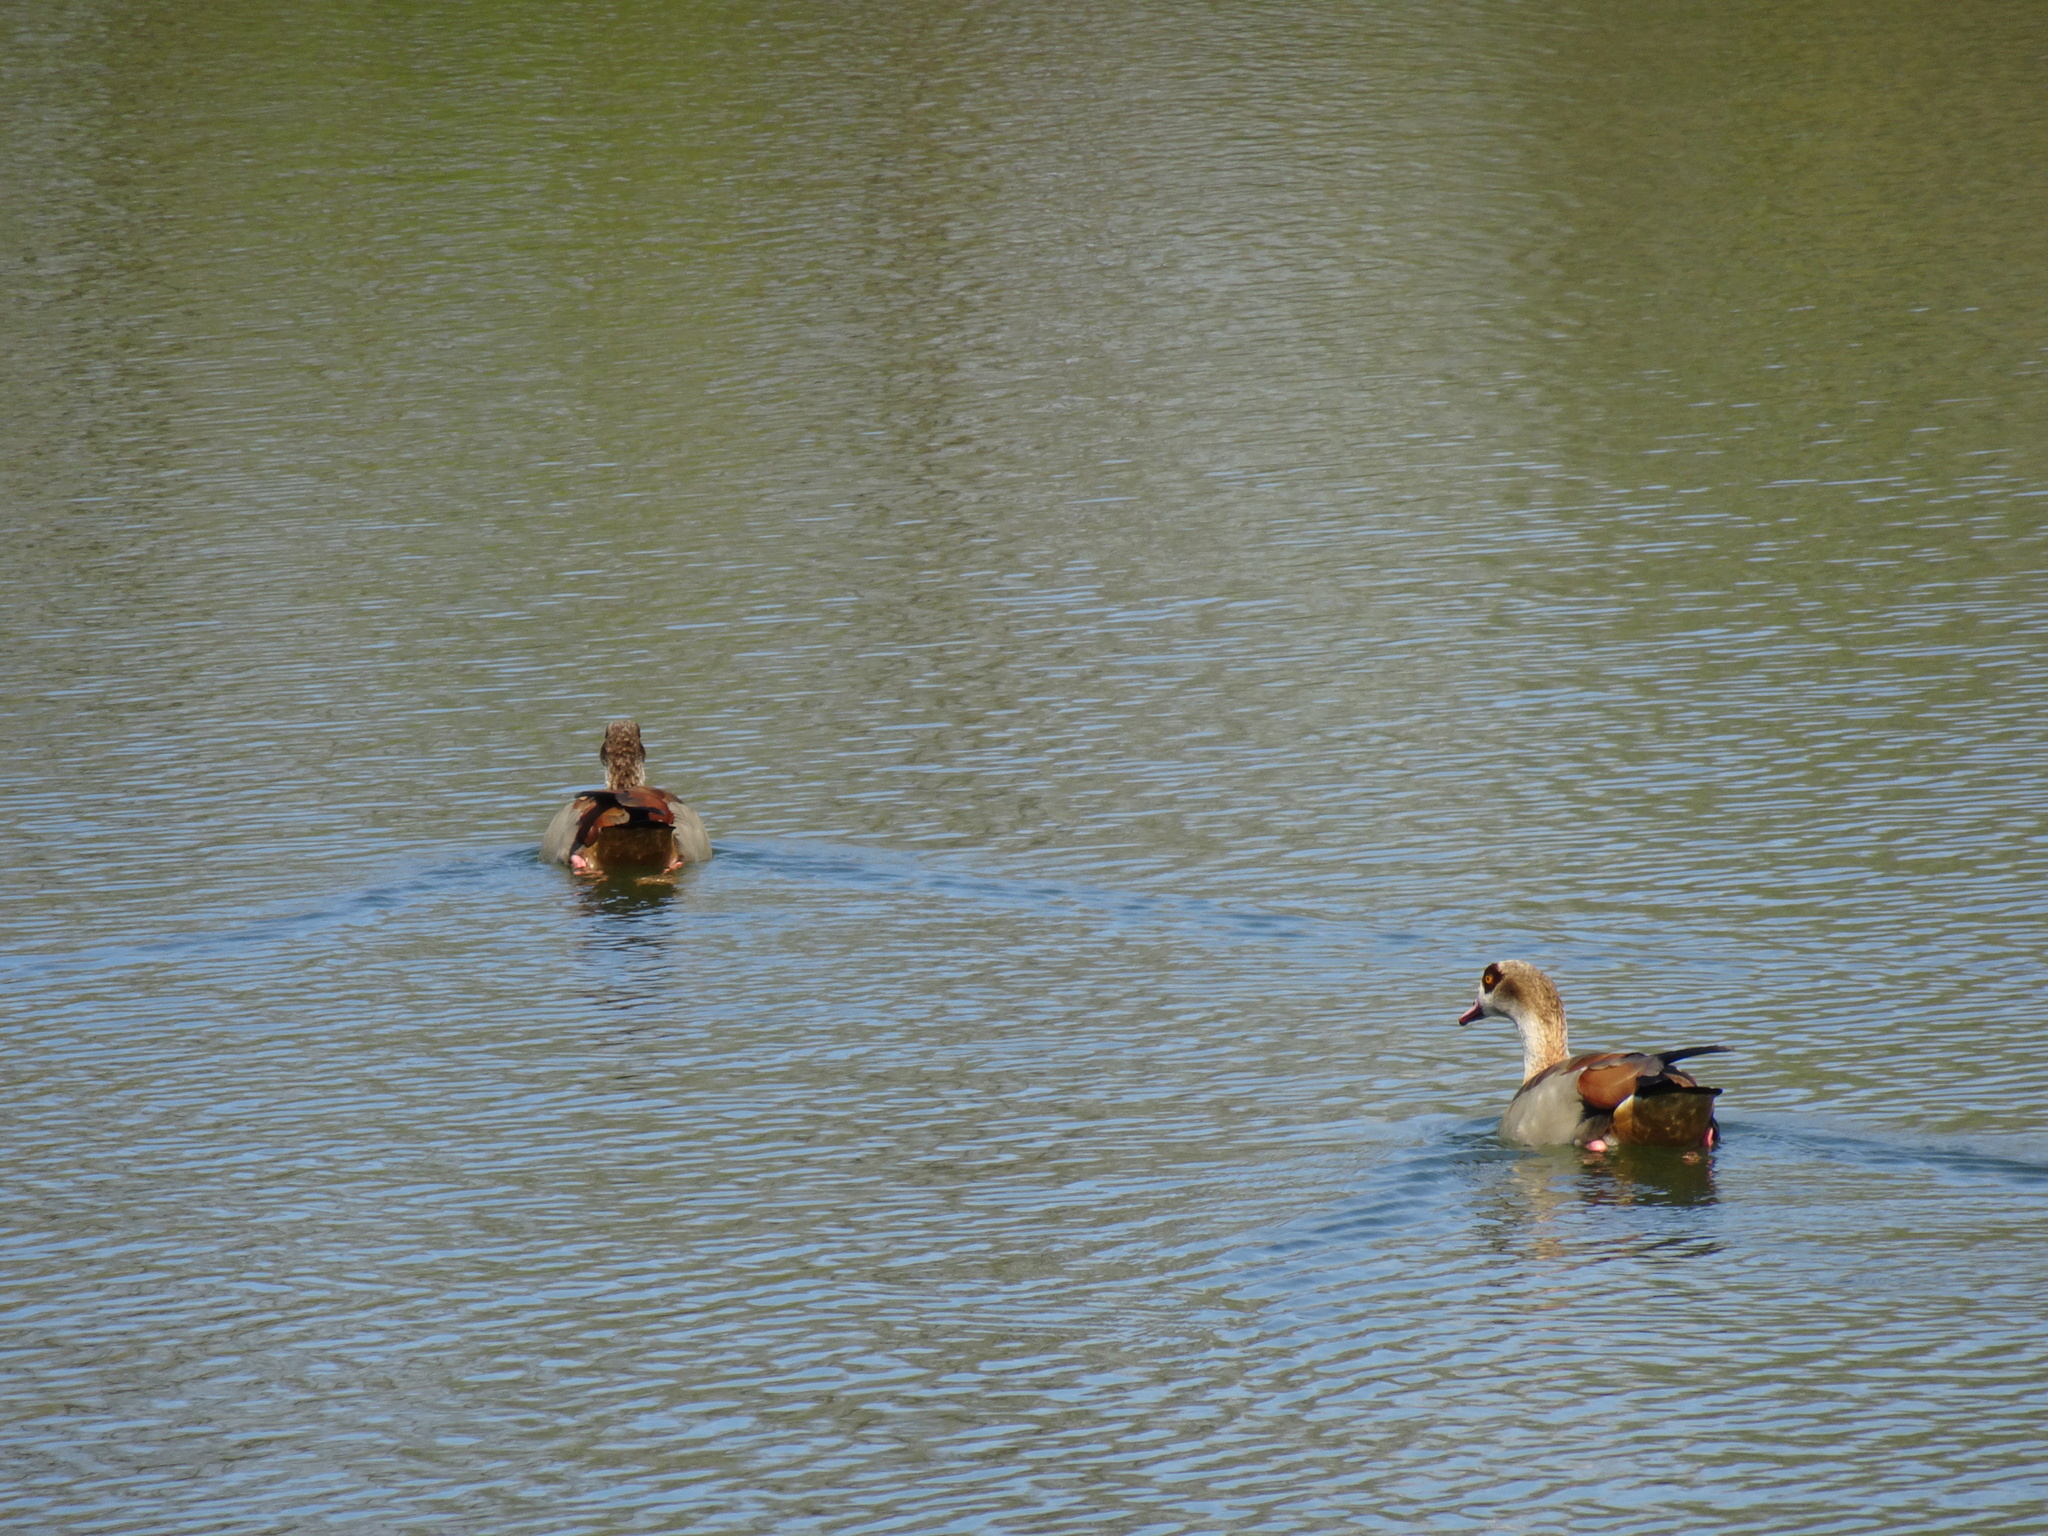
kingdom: Animalia
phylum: Chordata
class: Aves
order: Anseriformes
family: Anatidae
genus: Alopochen
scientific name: Alopochen aegyptiaca
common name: Egyptian goose
